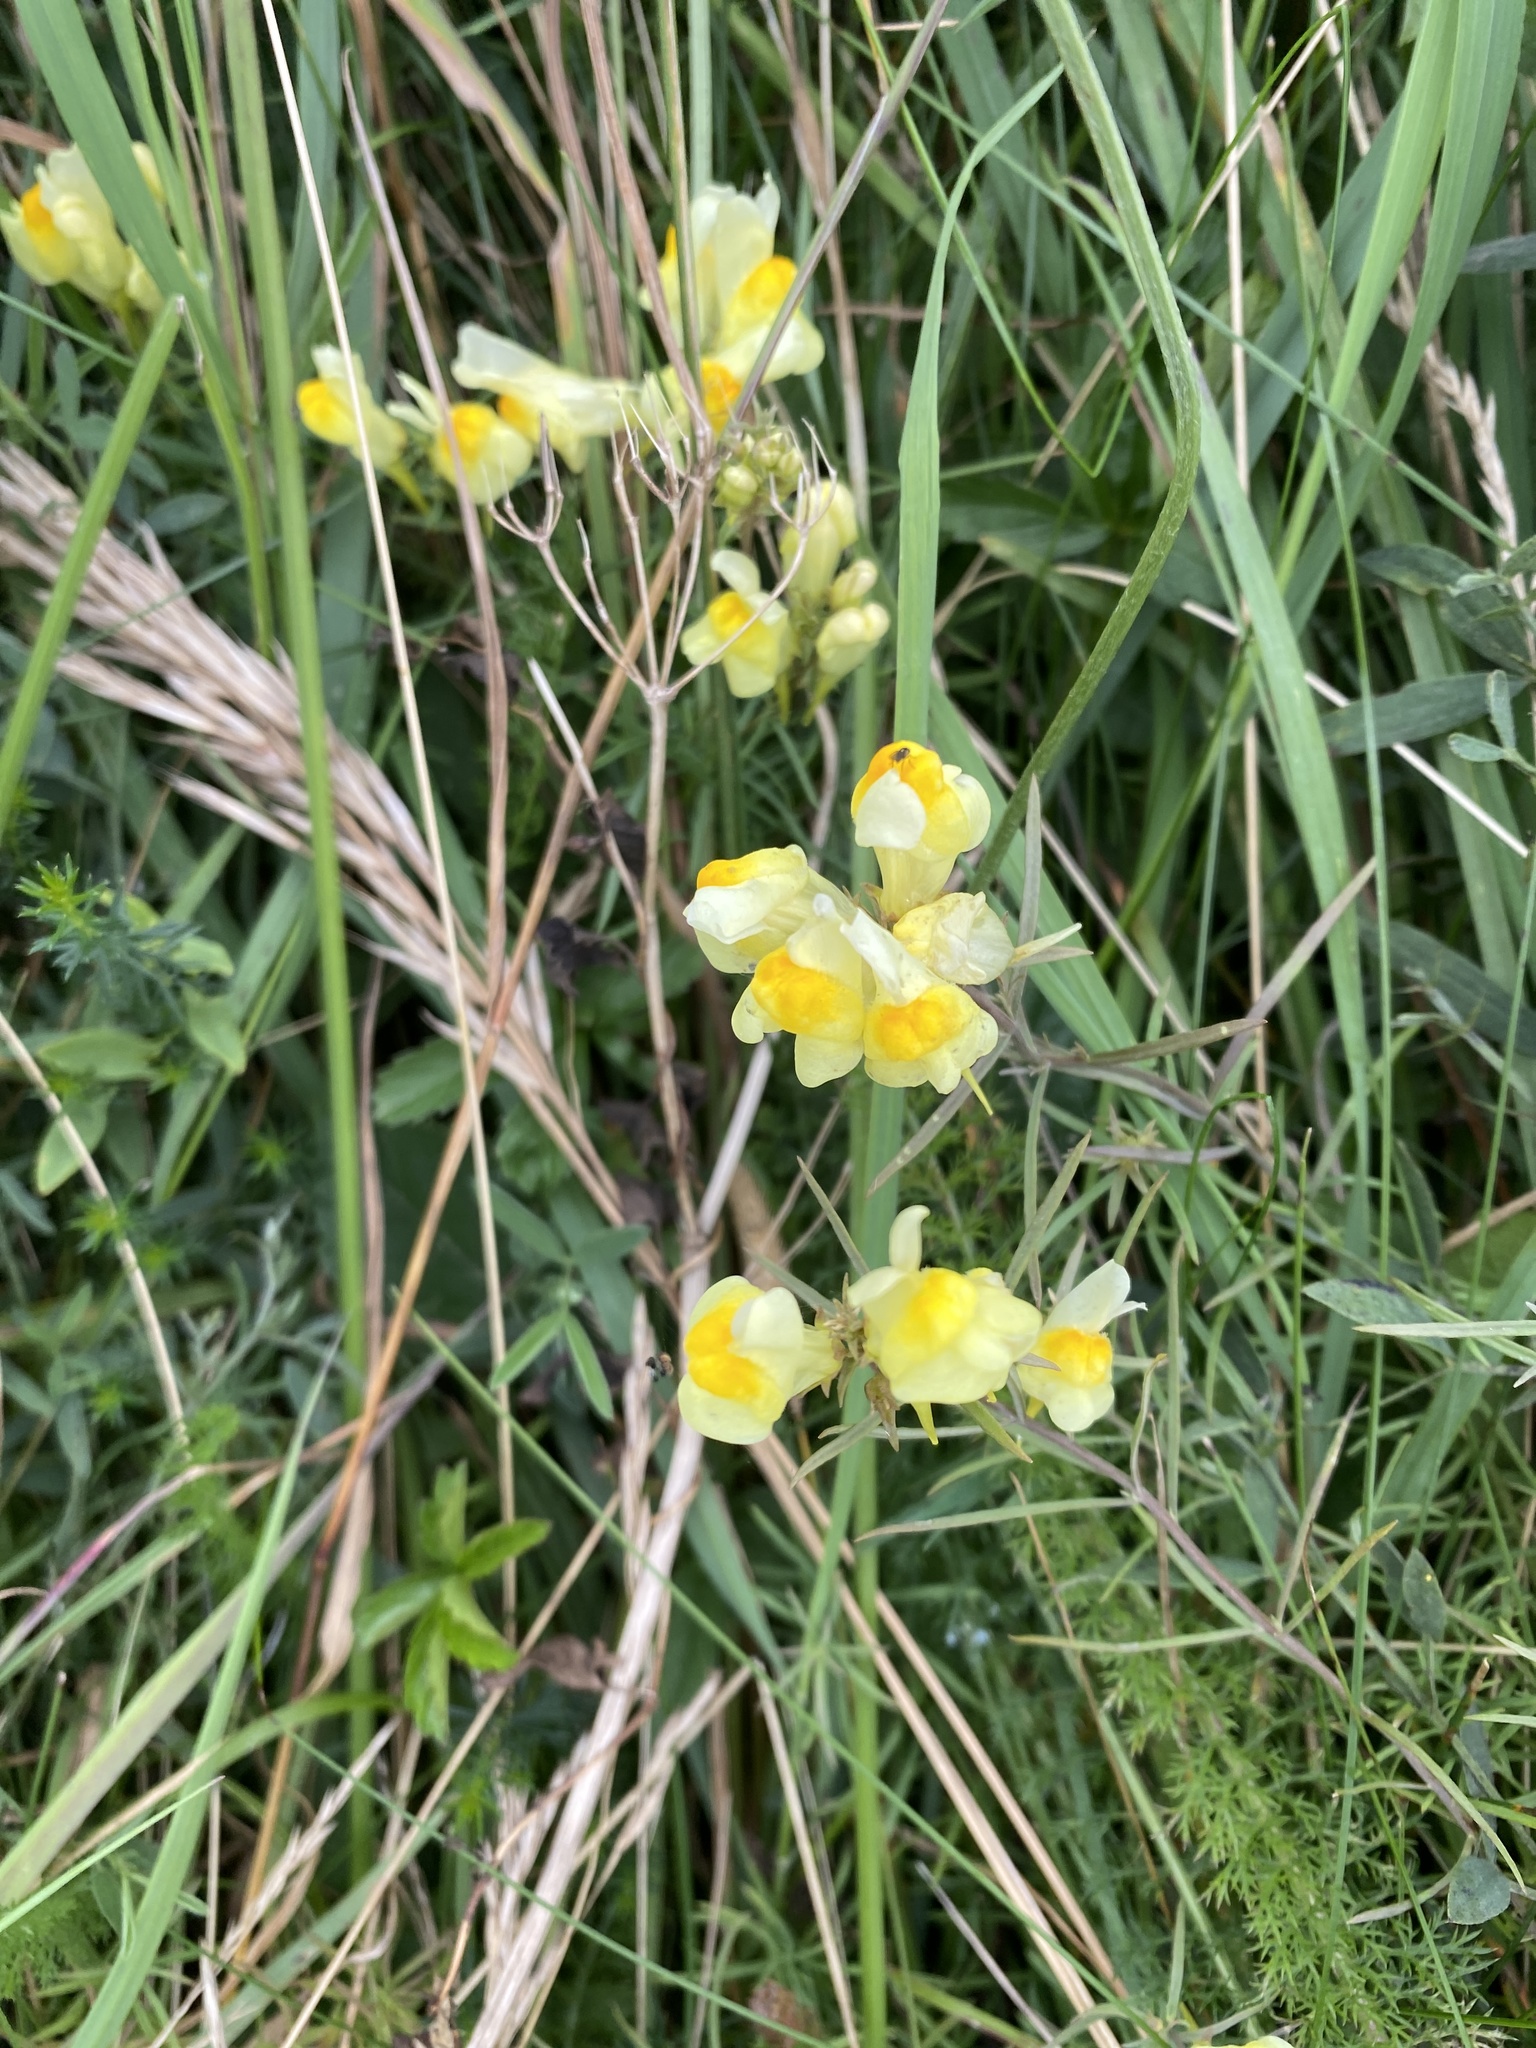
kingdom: Plantae
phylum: Tracheophyta
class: Magnoliopsida
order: Lamiales
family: Plantaginaceae
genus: Linaria
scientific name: Linaria vulgaris
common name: Butter and eggs
